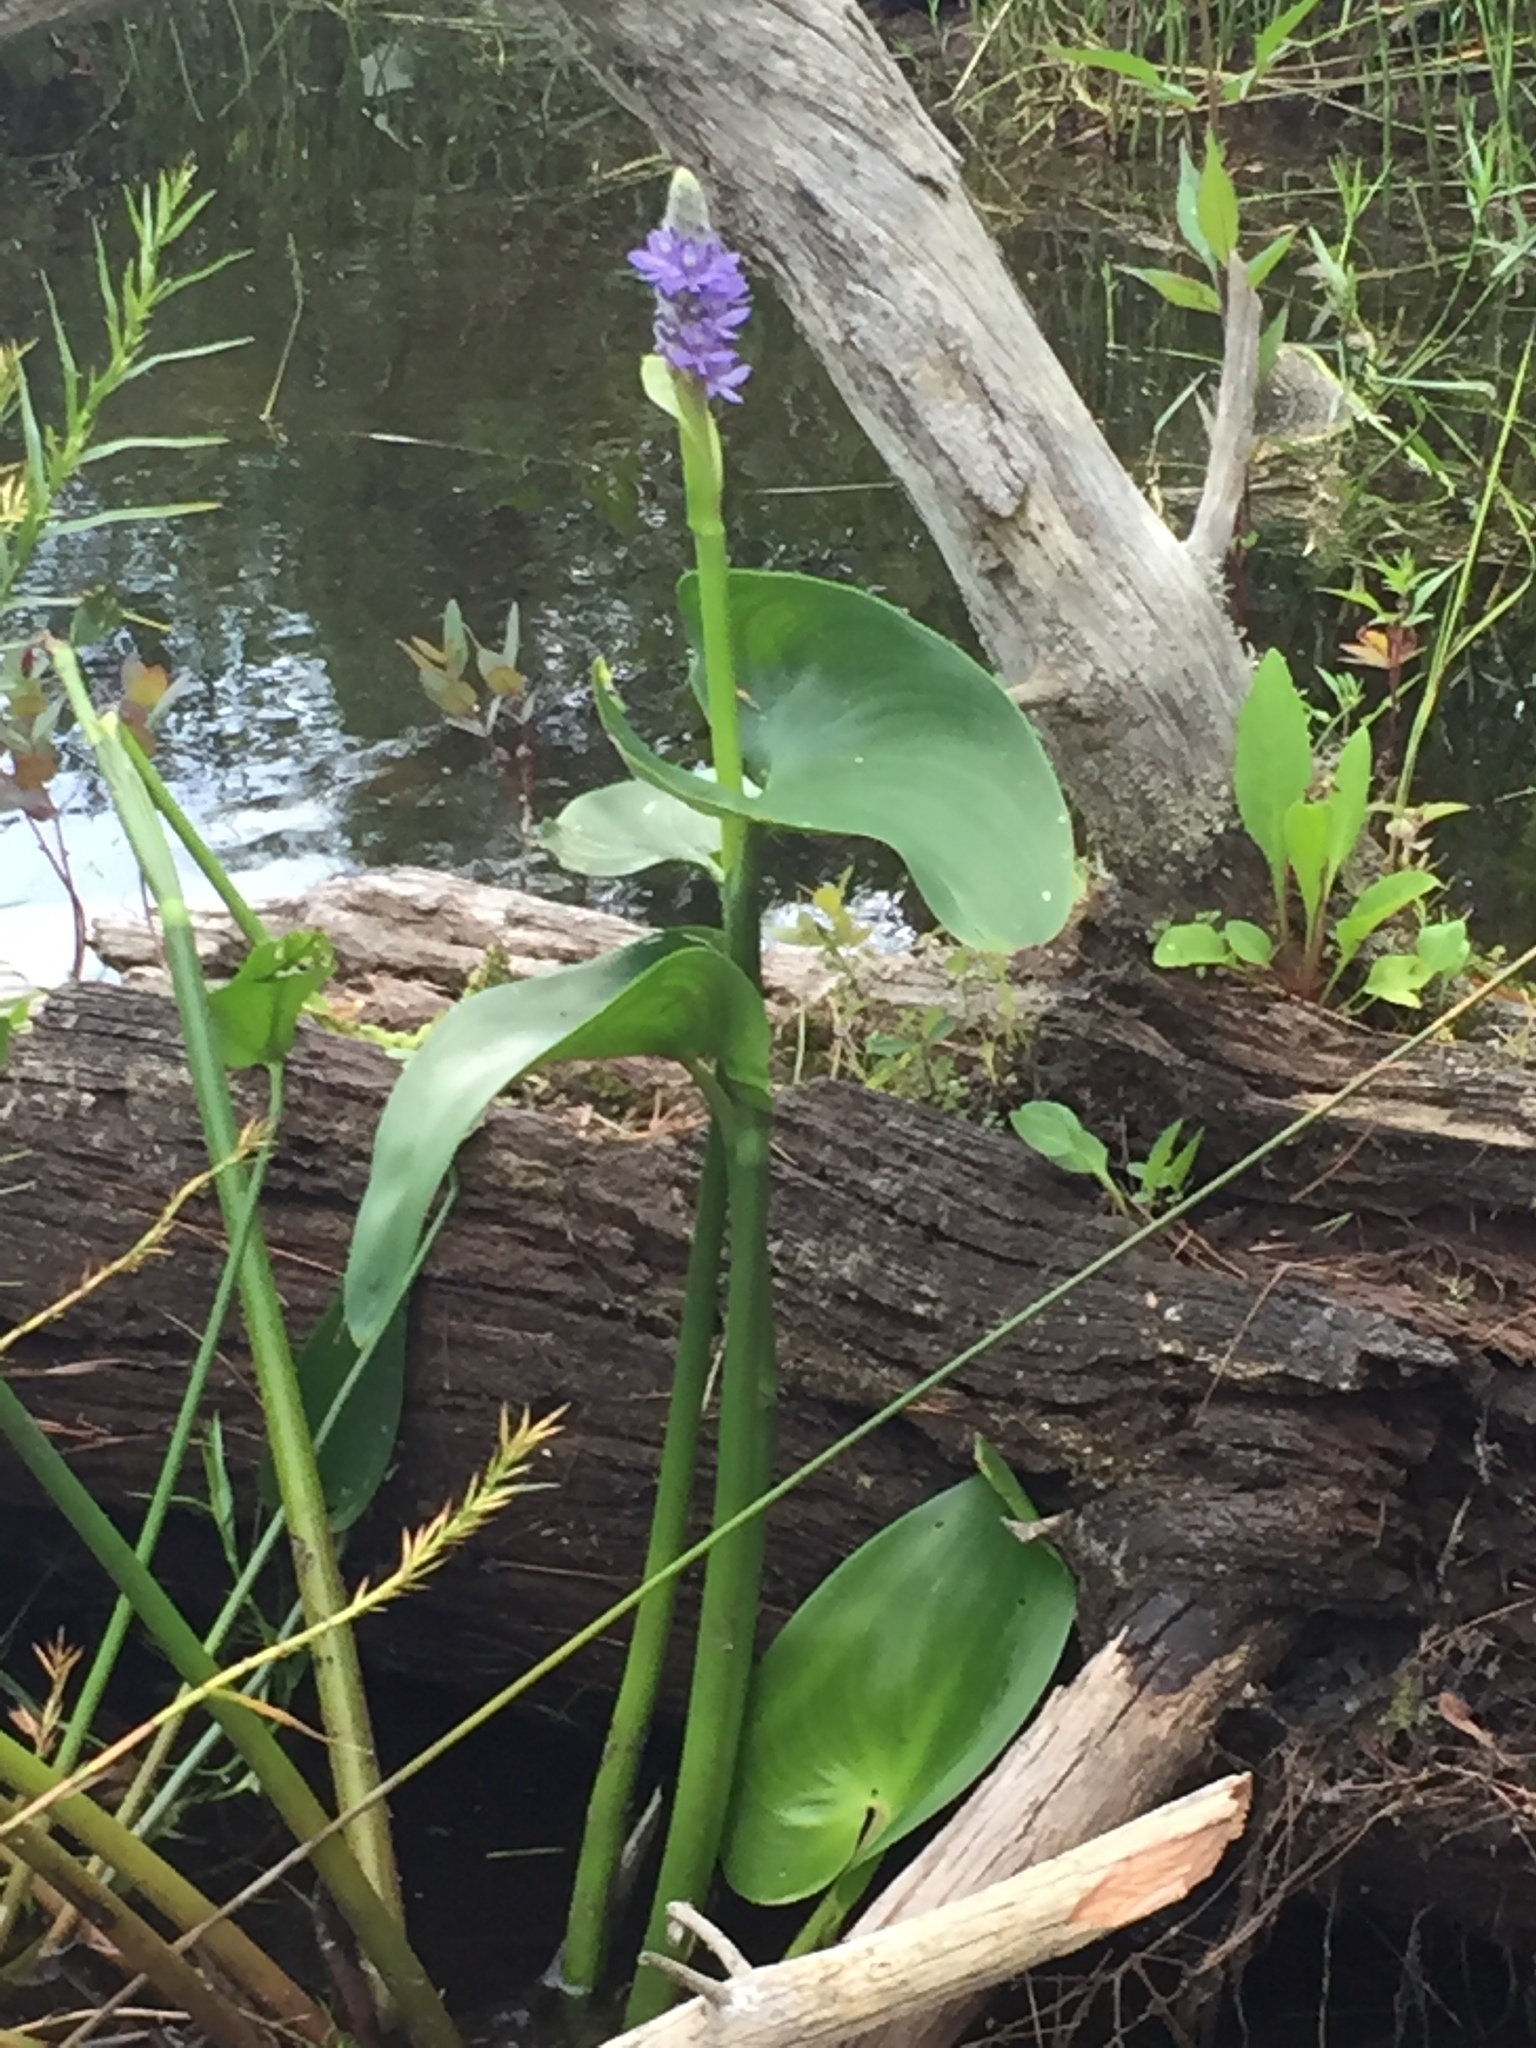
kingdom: Plantae
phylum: Tracheophyta
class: Liliopsida
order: Commelinales
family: Pontederiaceae
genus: Pontederia
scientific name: Pontederia cordata
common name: Pickerelweed
